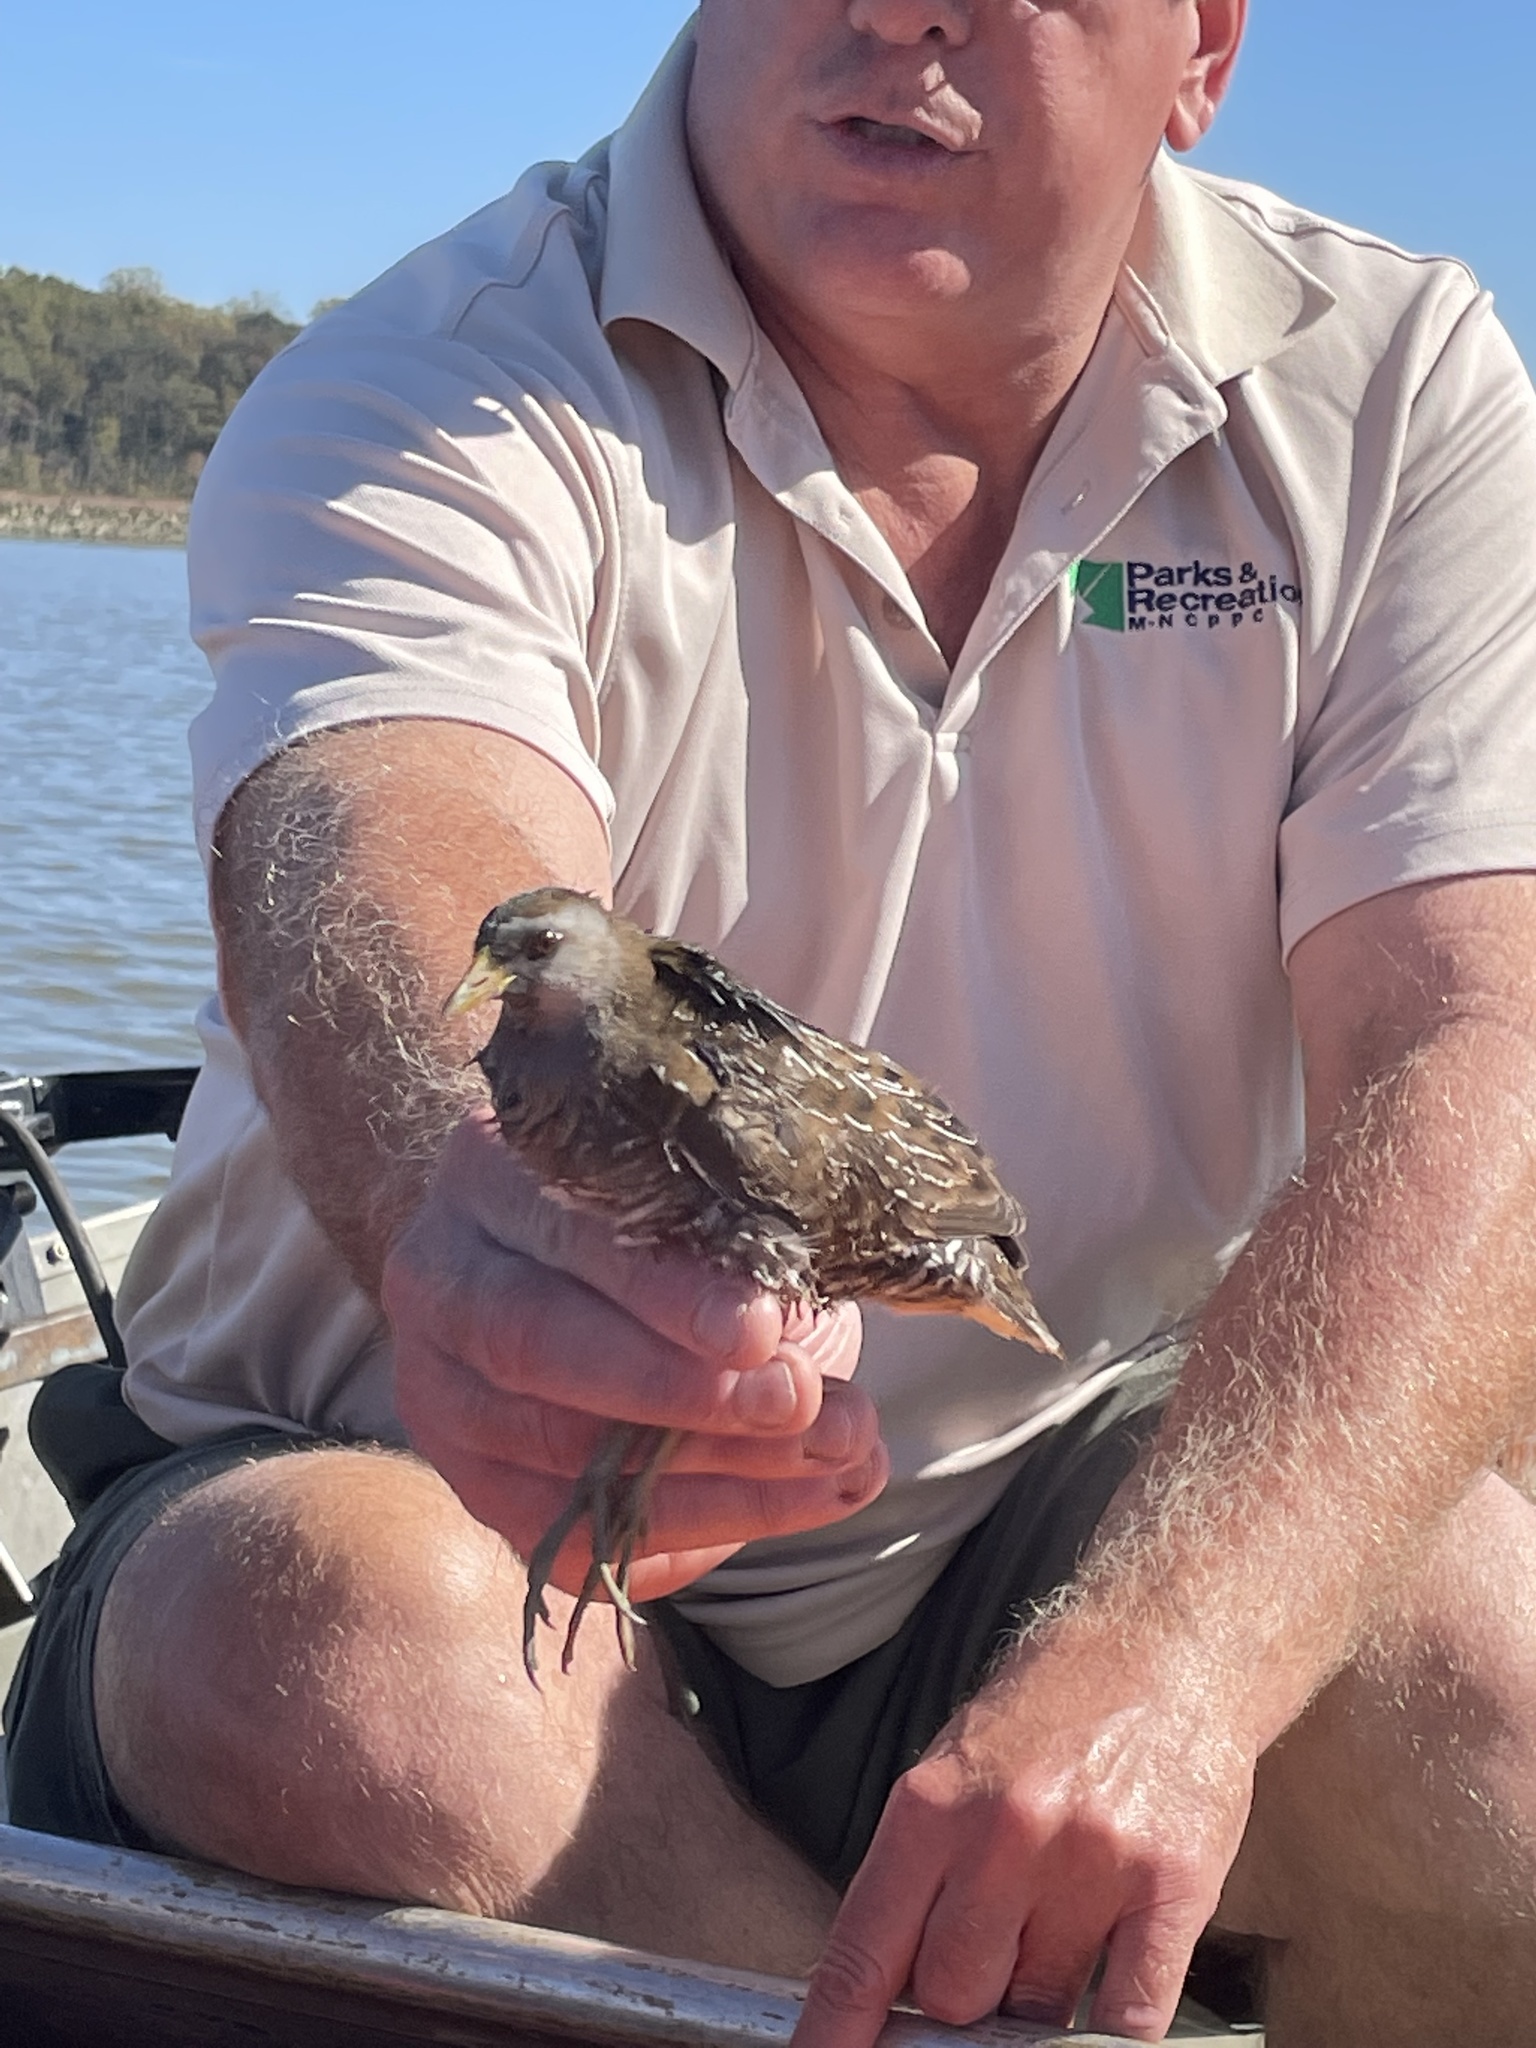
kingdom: Animalia
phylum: Chordata
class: Aves
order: Gruiformes
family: Rallidae
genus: Porzana
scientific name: Porzana carolina
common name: Sora
